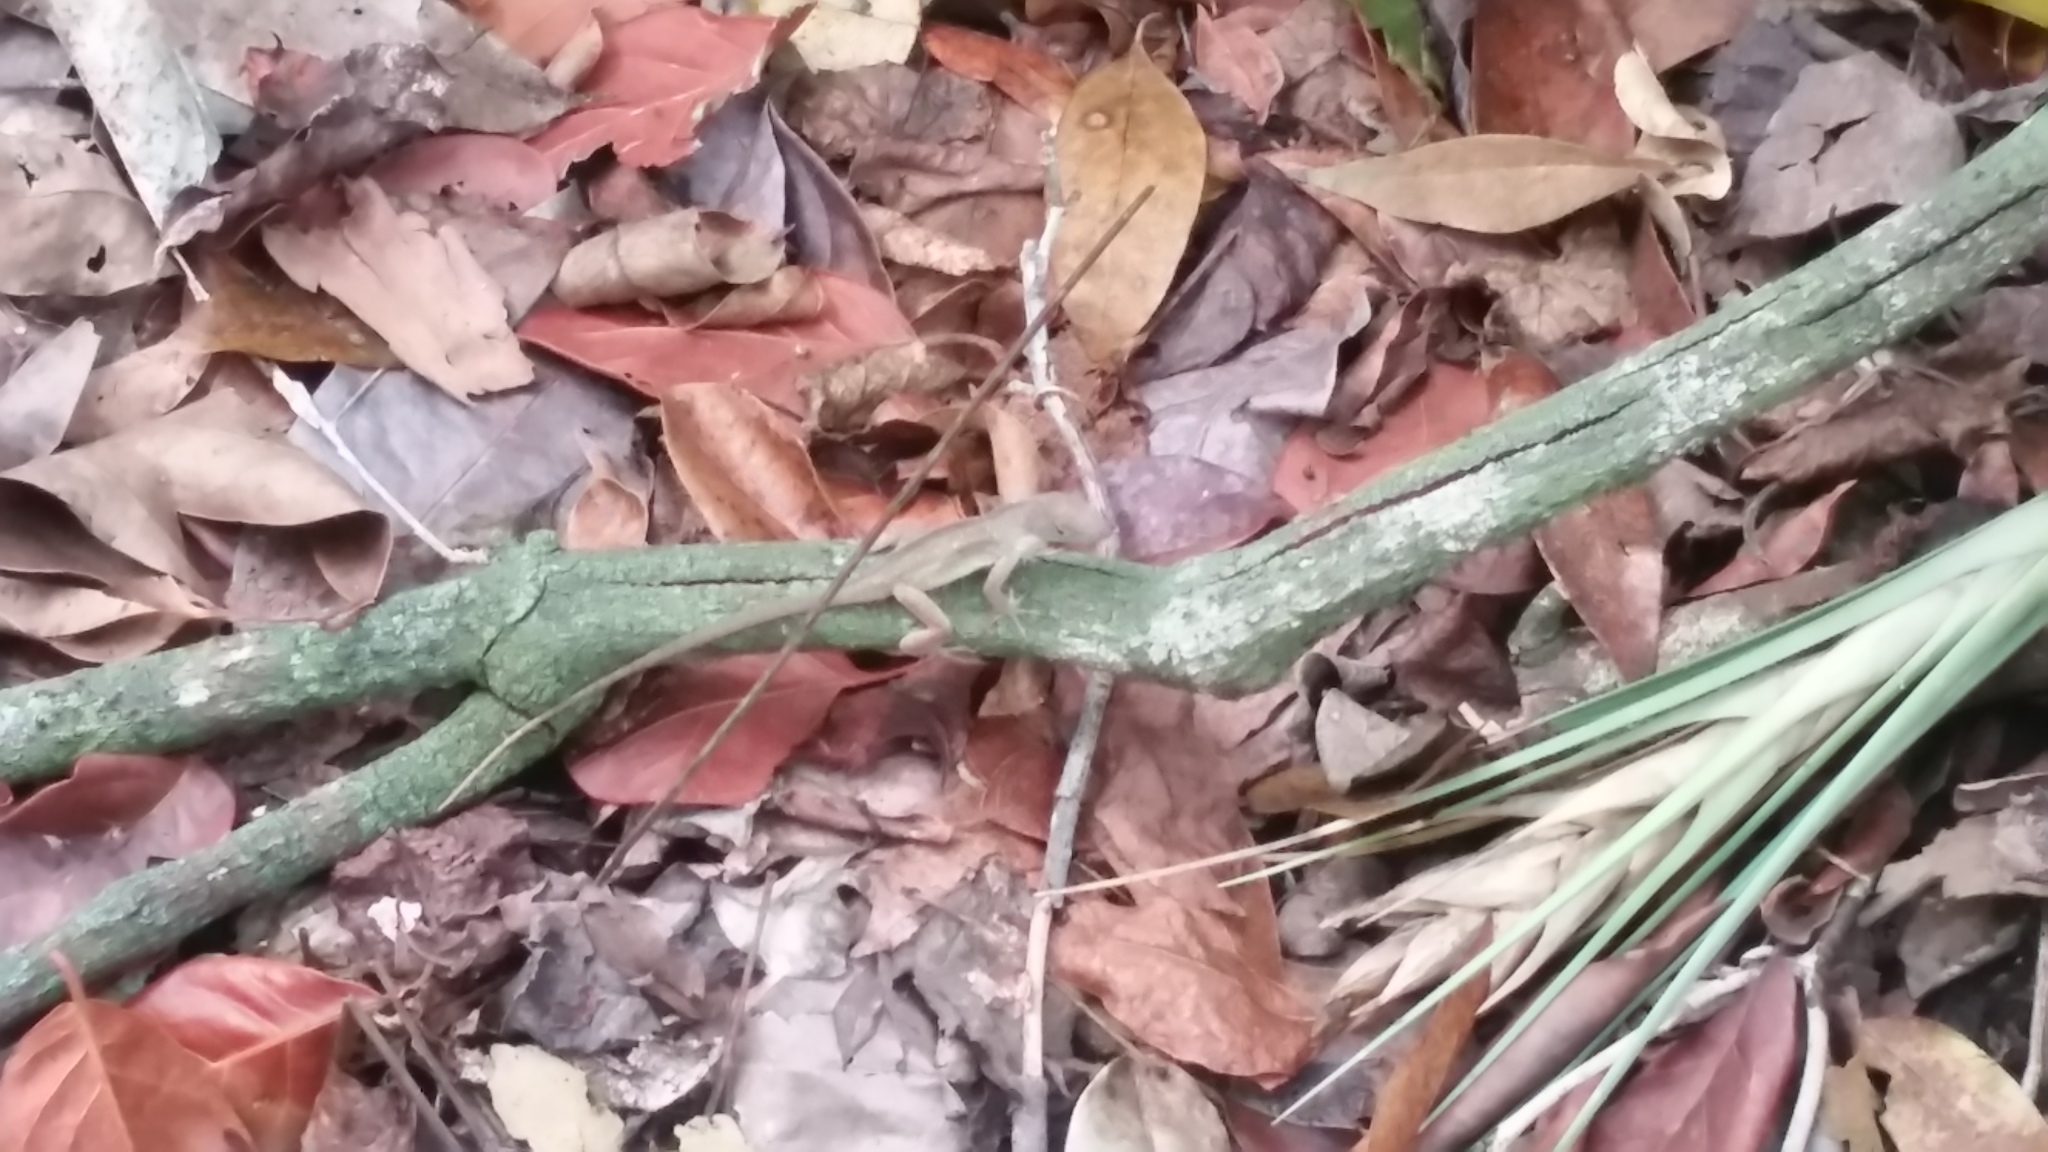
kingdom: Animalia
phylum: Chordata
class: Squamata
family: Dactyloidae
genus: Anolis
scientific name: Anolis
